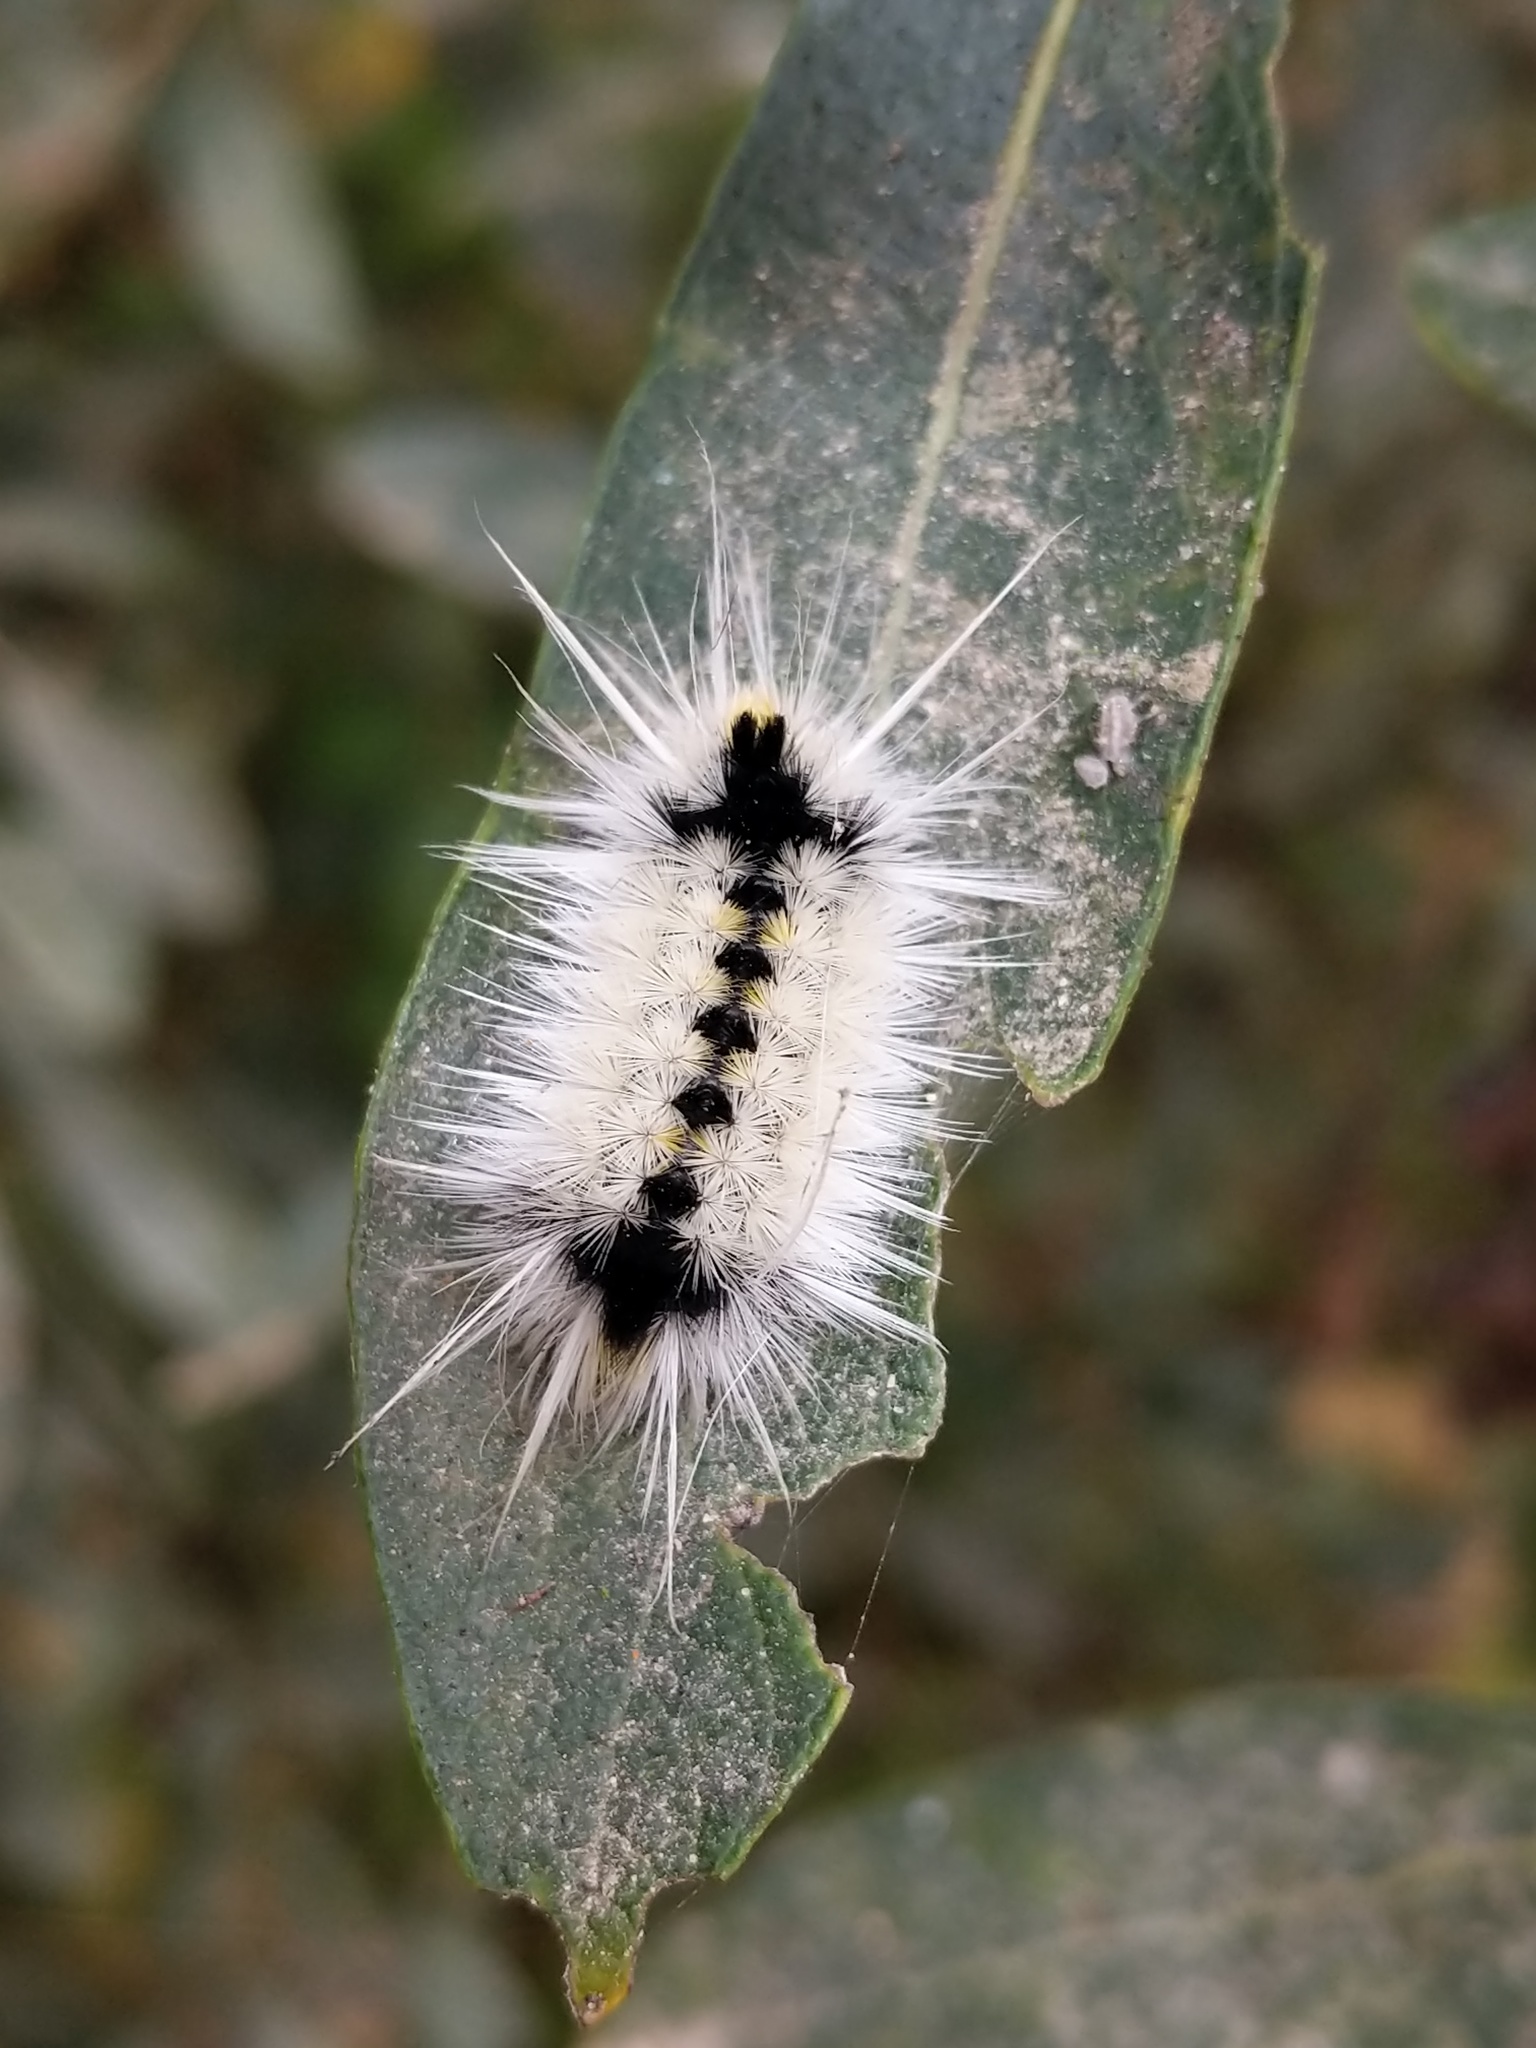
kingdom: Animalia
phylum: Arthropoda
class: Insecta
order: Lepidoptera
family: Erebidae
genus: Lophocampa
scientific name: Lophocampa maculata
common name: Spotted tussock moth
